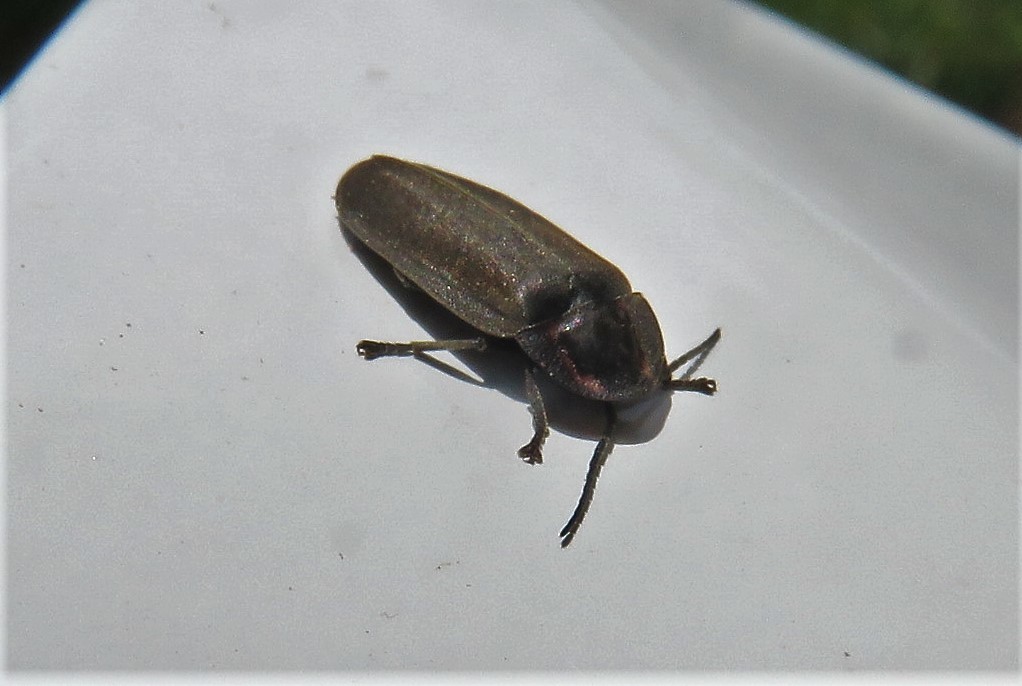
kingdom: Animalia
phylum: Arthropoda
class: Insecta
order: Coleoptera
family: Lampyridae
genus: Photinus
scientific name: Photinus corrusca
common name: Winter firefly
